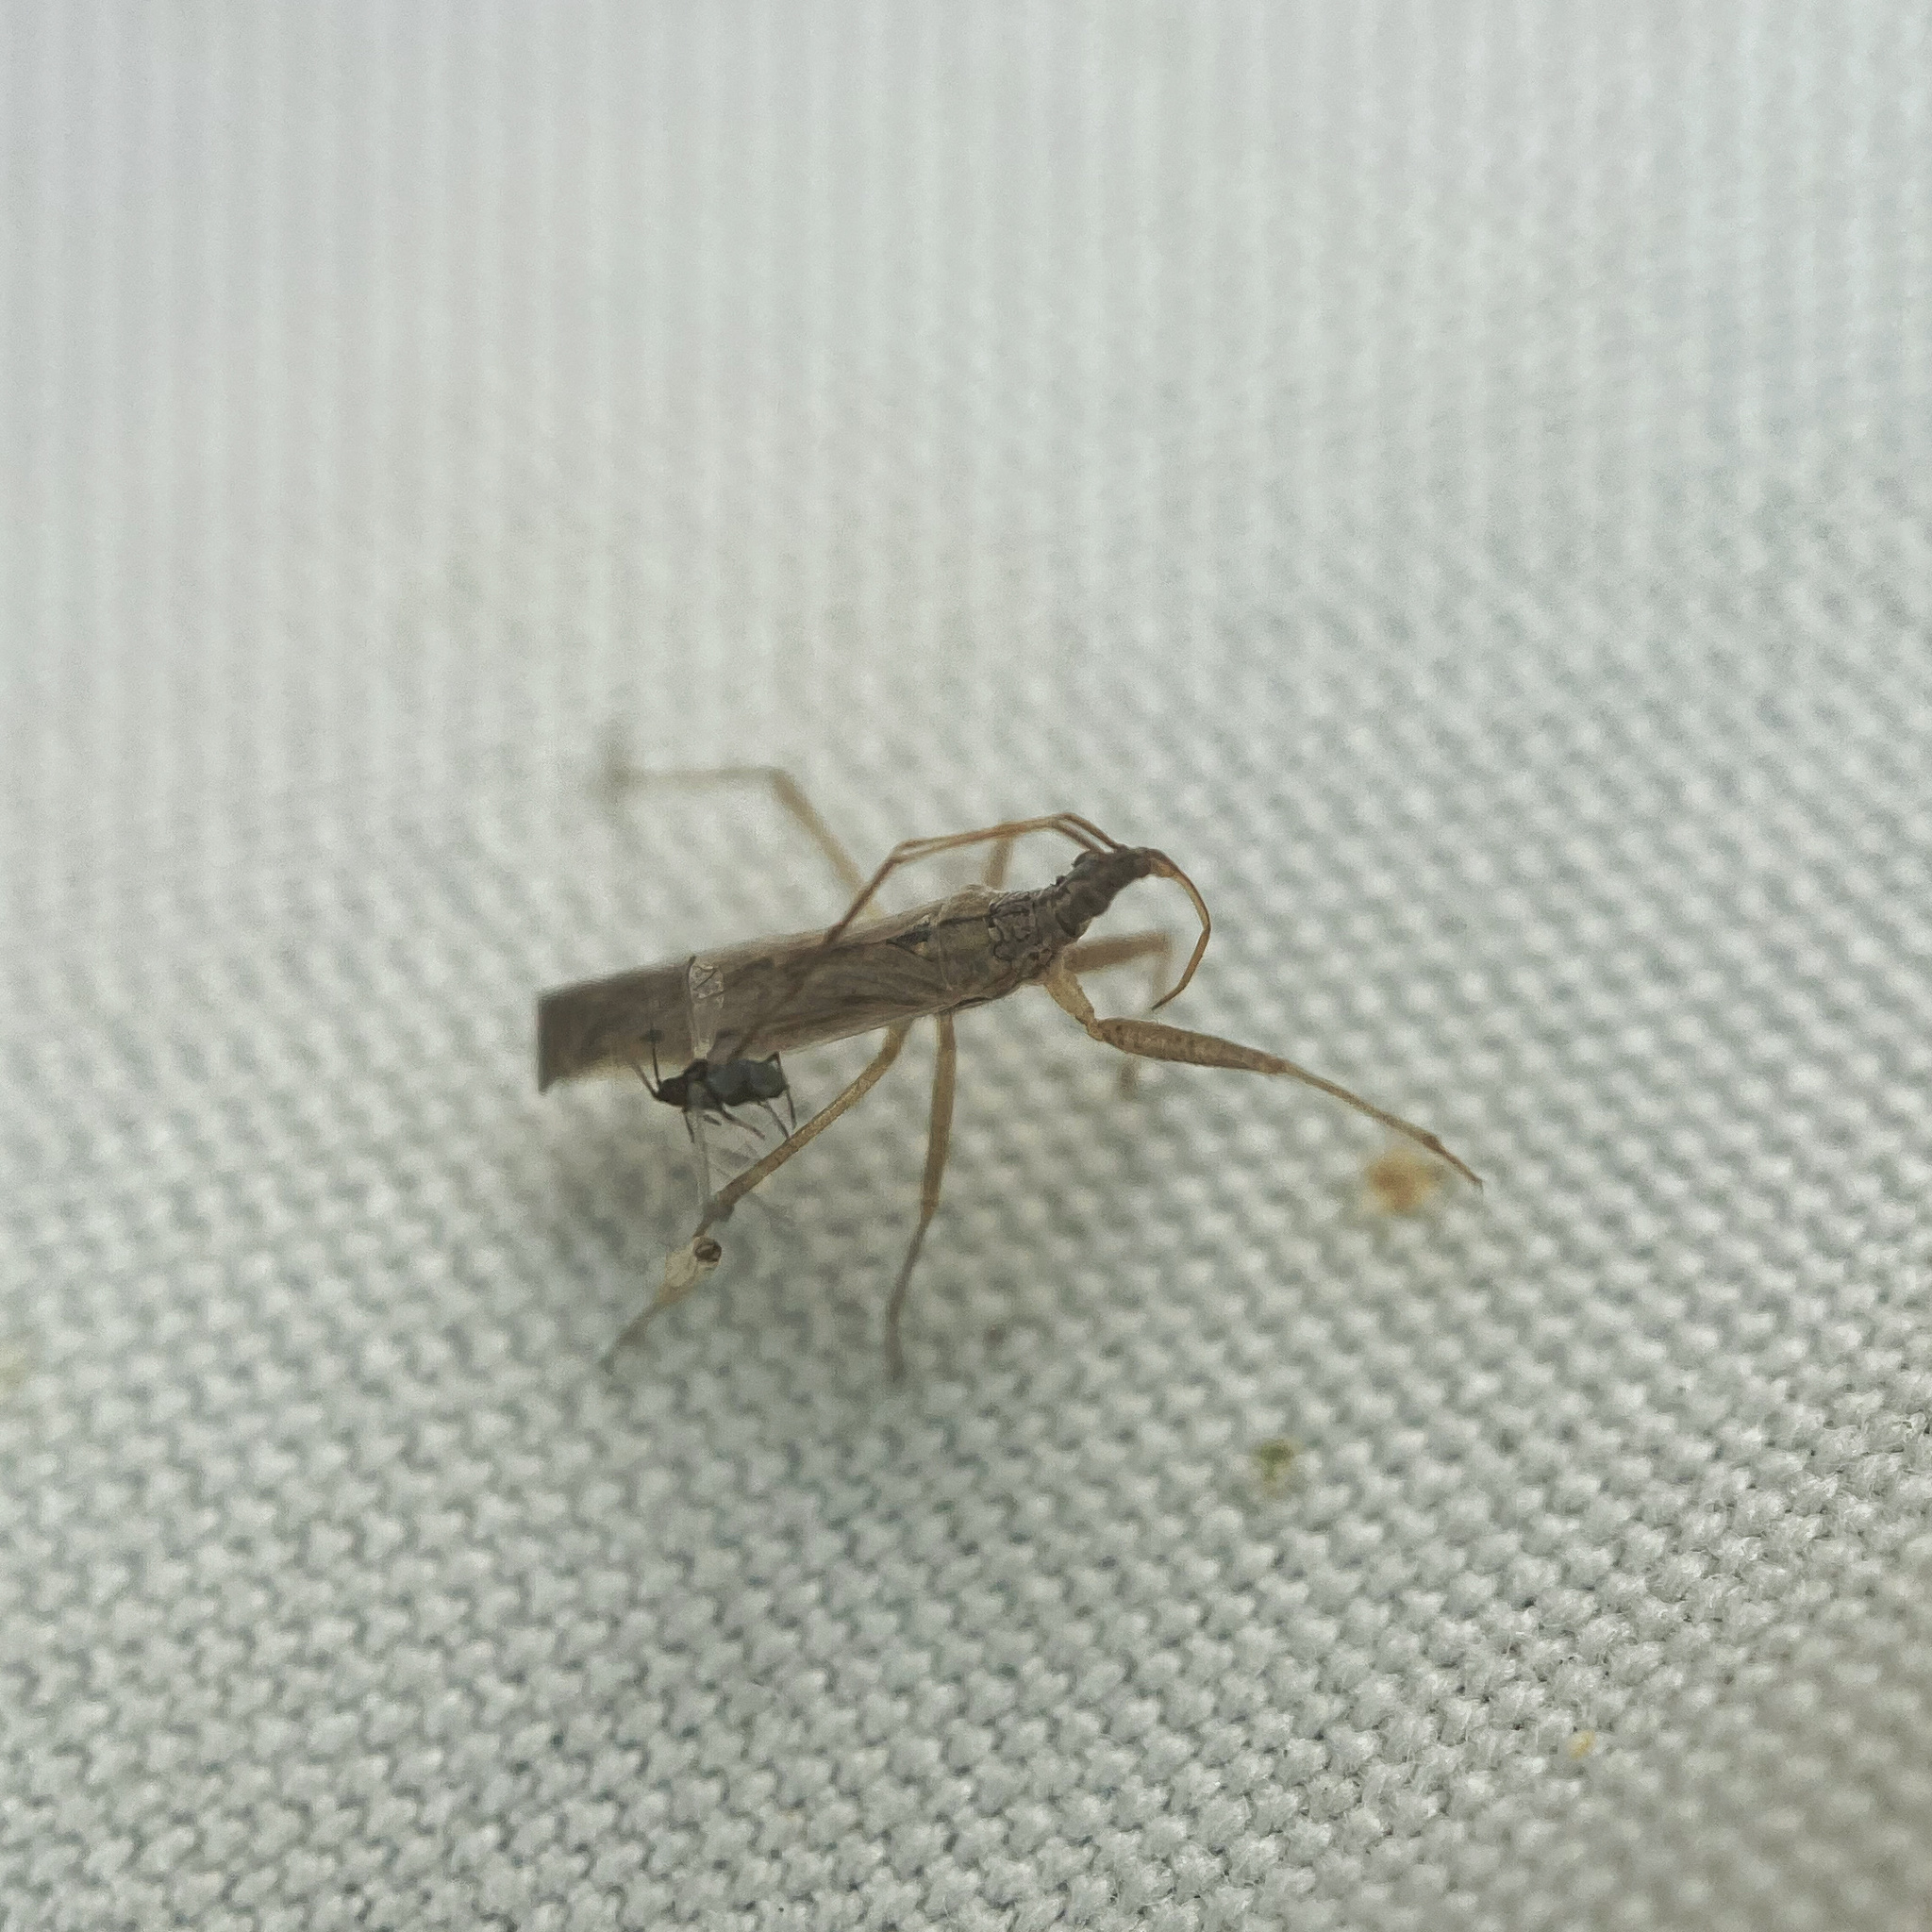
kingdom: Animalia
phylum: Arthropoda
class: Insecta
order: Hemiptera
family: Nabidae
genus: Nabis
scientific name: Nabis kinbergii
